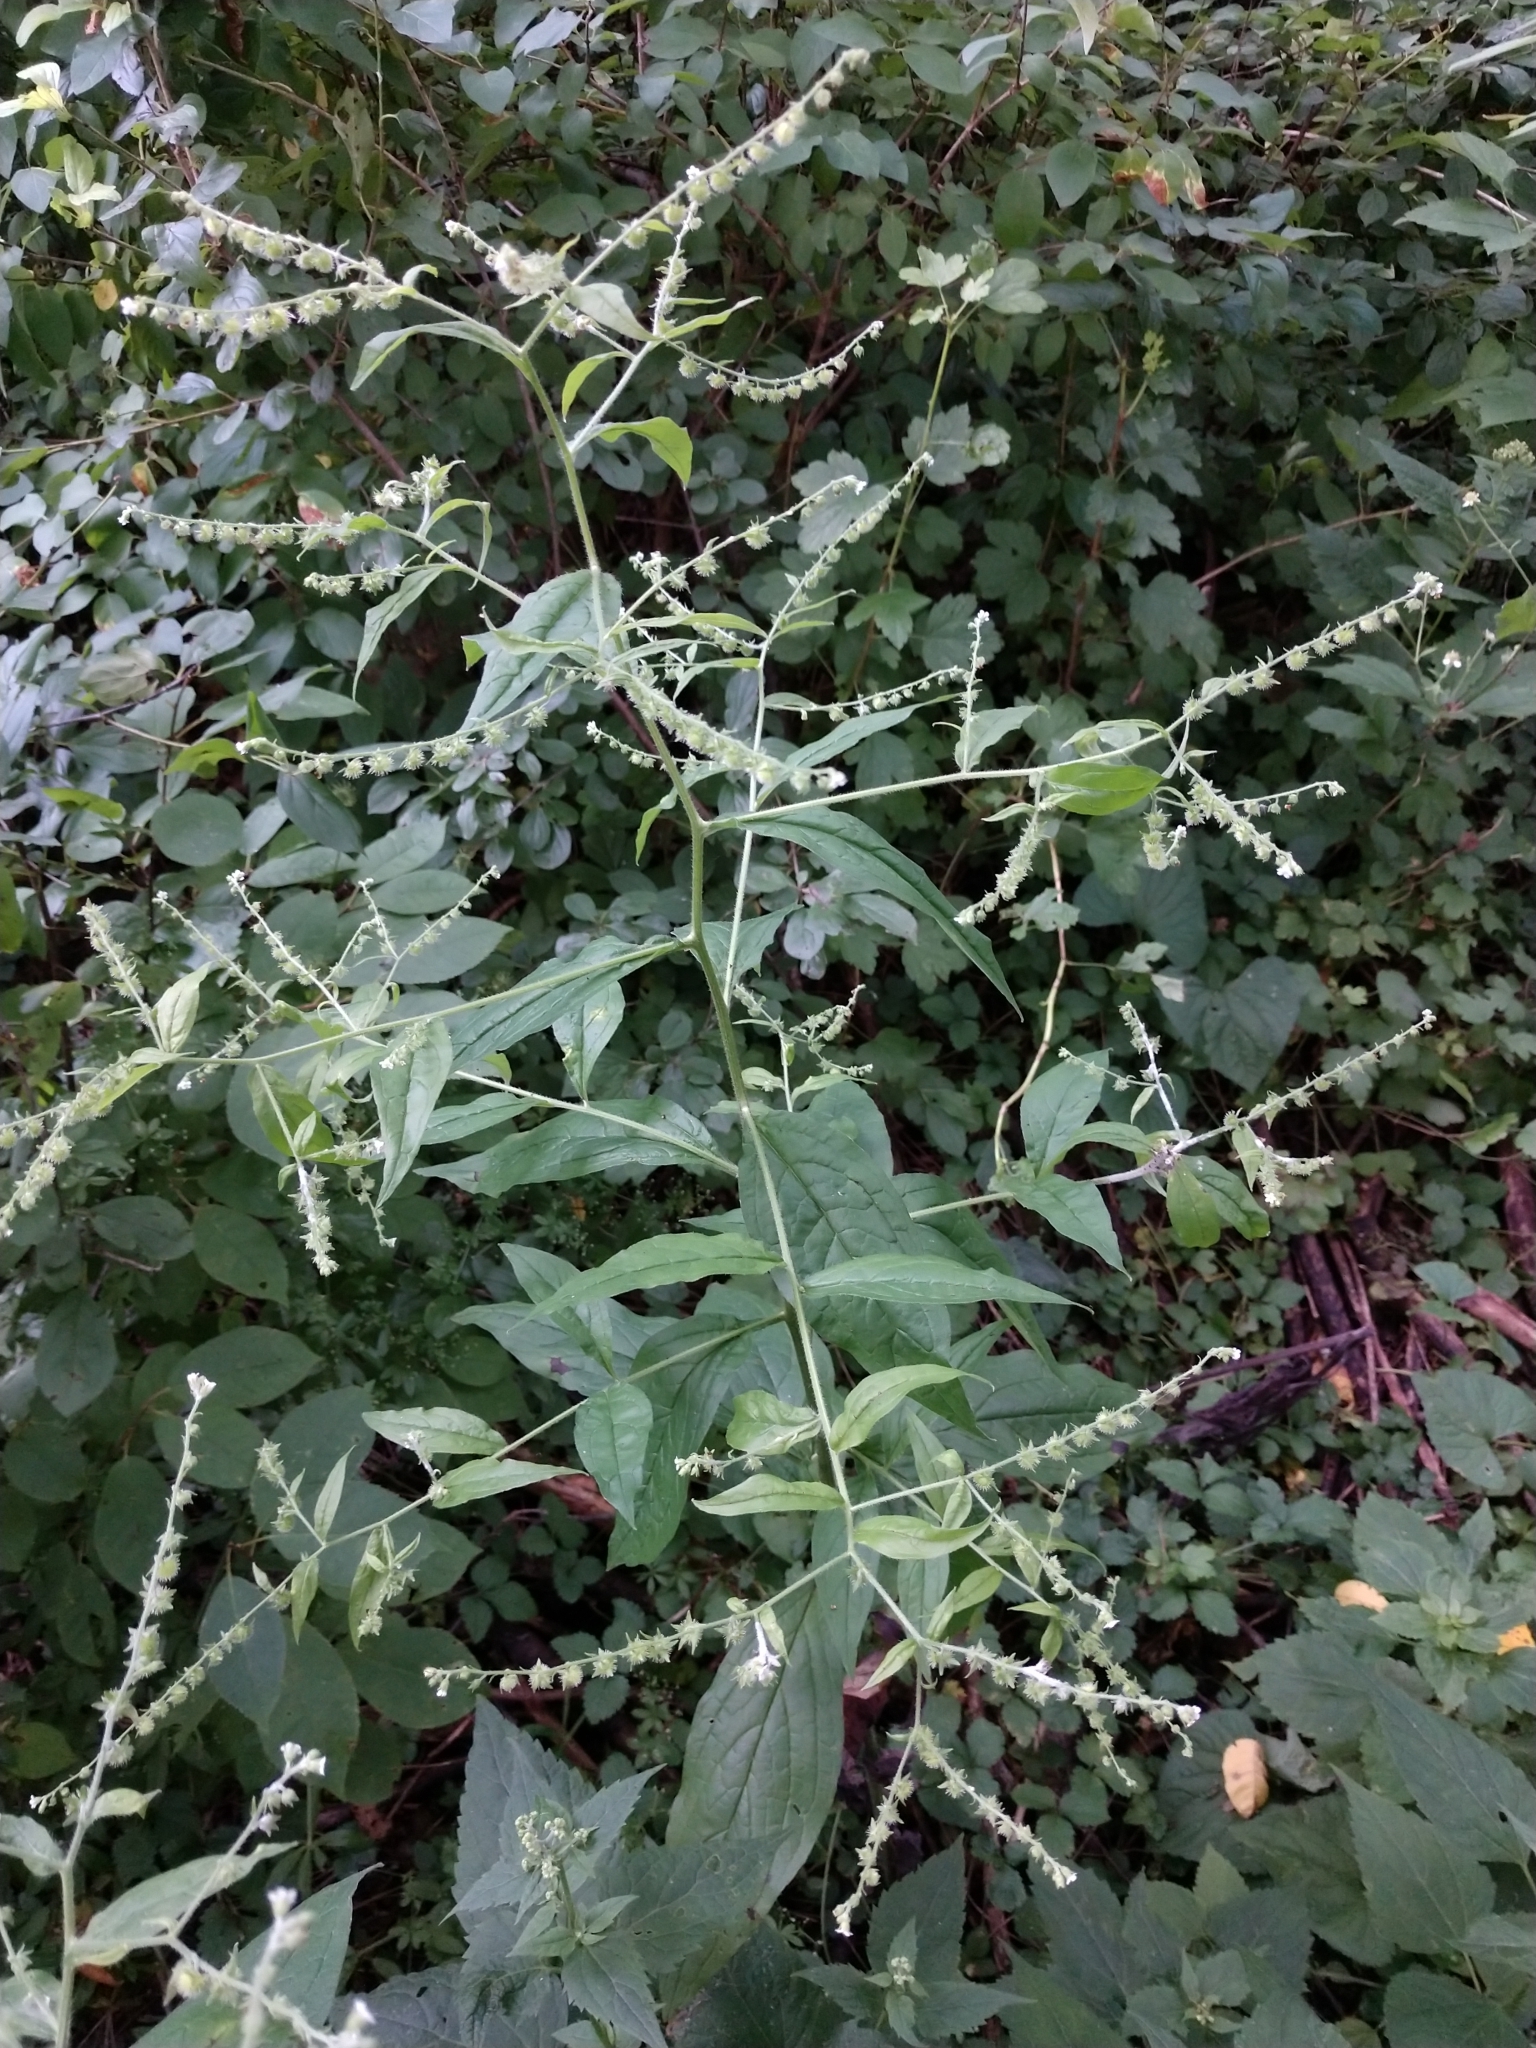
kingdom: Plantae
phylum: Tracheophyta
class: Magnoliopsida
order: Boraginales
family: Boraginaceae
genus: Hackelia
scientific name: Hackelia virginiana
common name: Beggar's-lice
